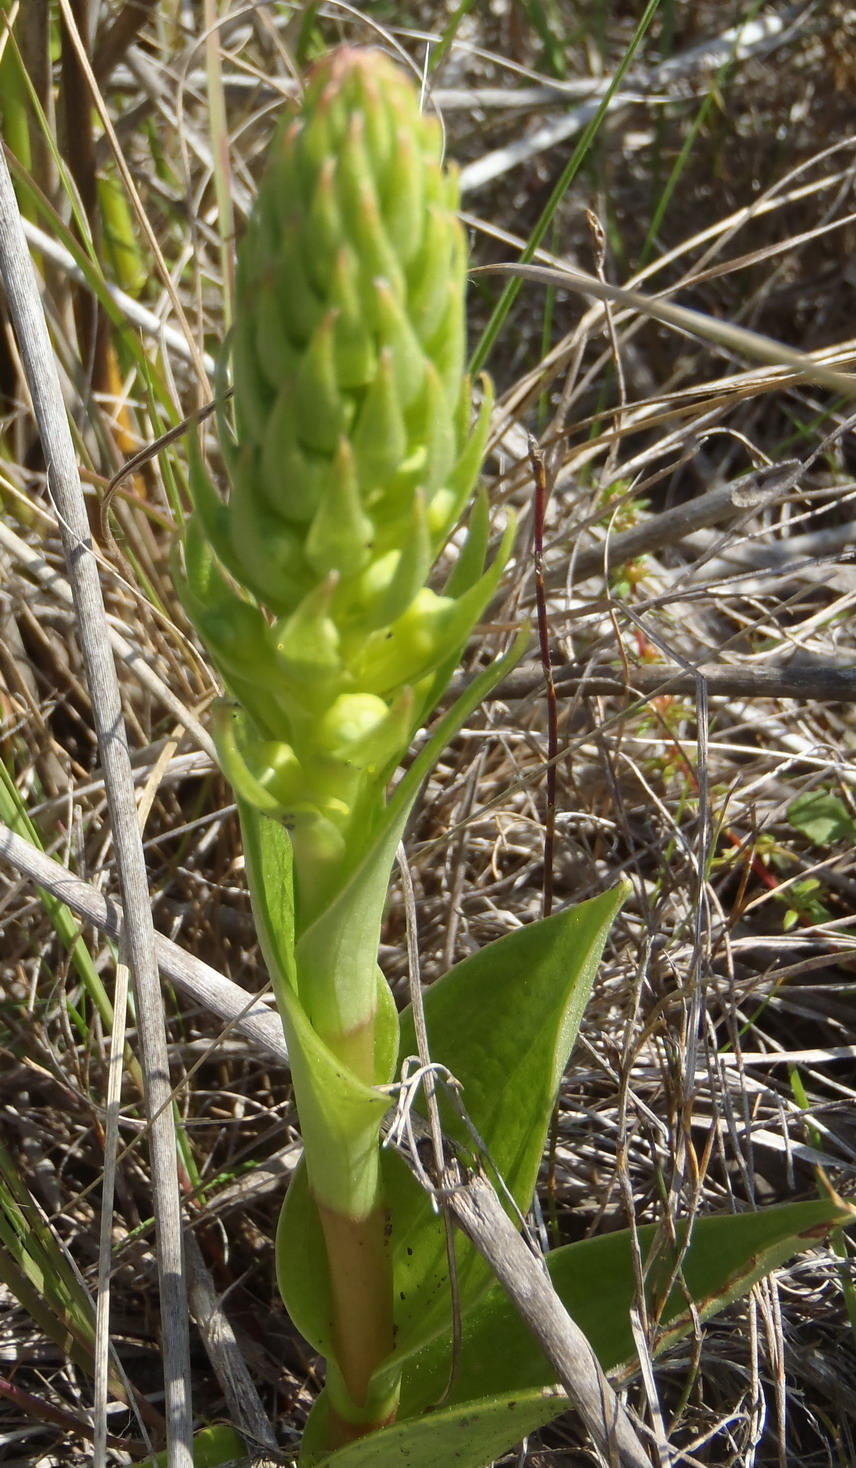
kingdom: Plantae
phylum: Tracheophyta
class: Liliopsida
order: Asparagales
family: Orchidaceae
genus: Satyrium
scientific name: Satyrium parviflorum
